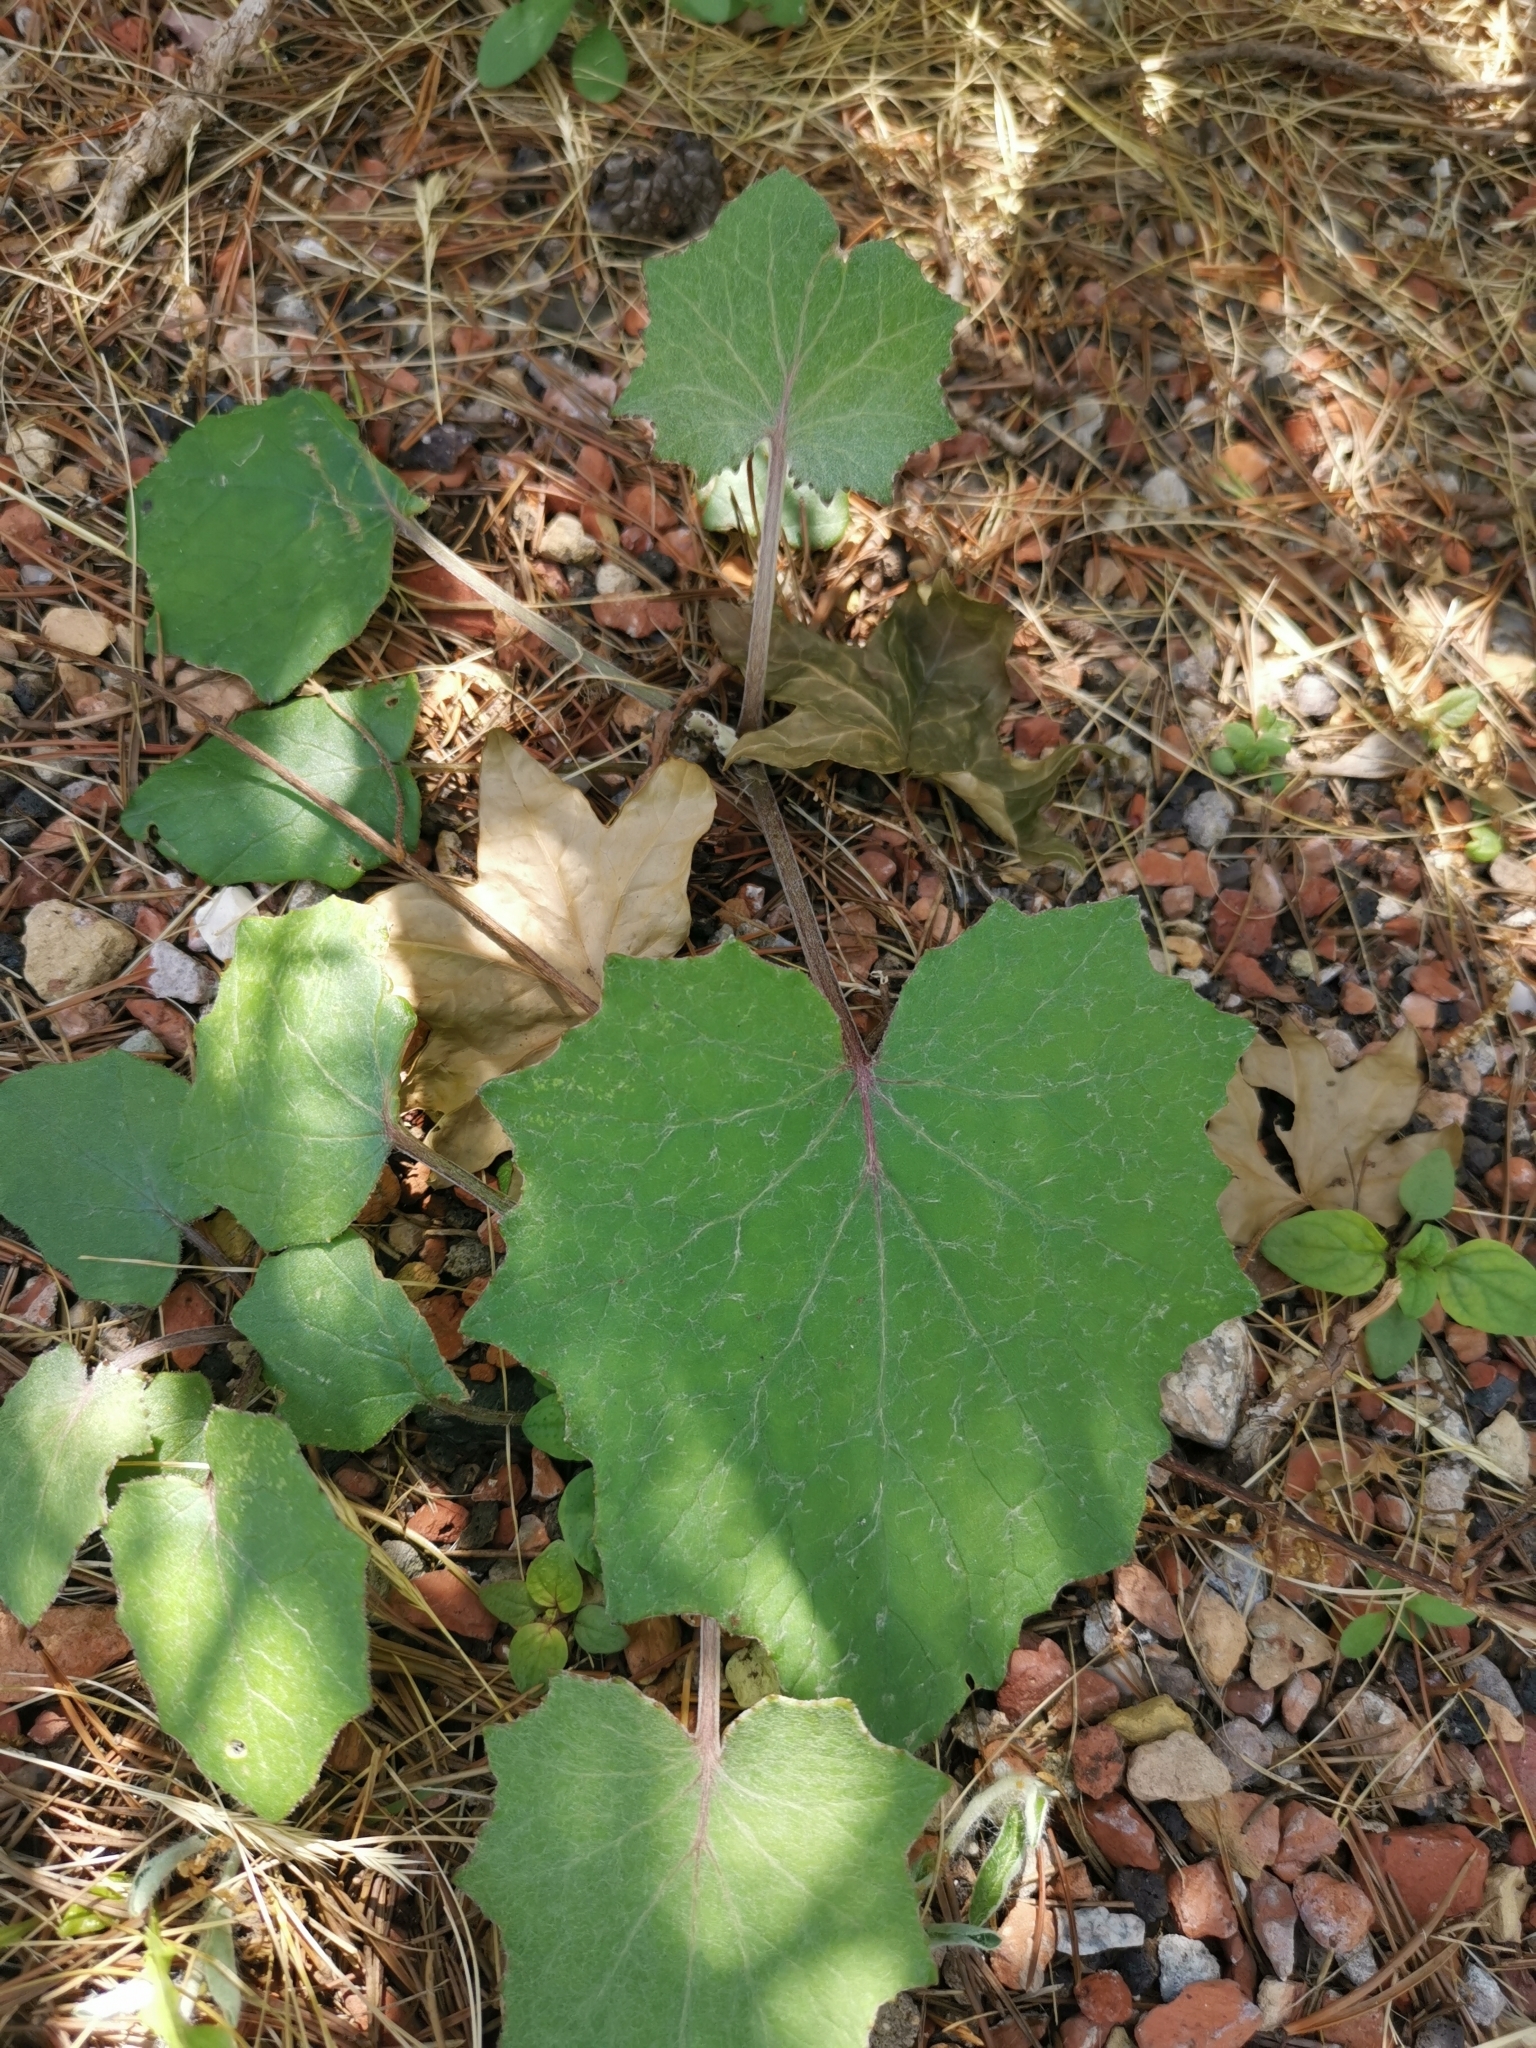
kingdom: Plantae
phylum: Tracheophyta
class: Magnoliopsida
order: Asterales
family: Asteraceae
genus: Tussilago
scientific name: Tussilago farfara
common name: Coltsfoot
